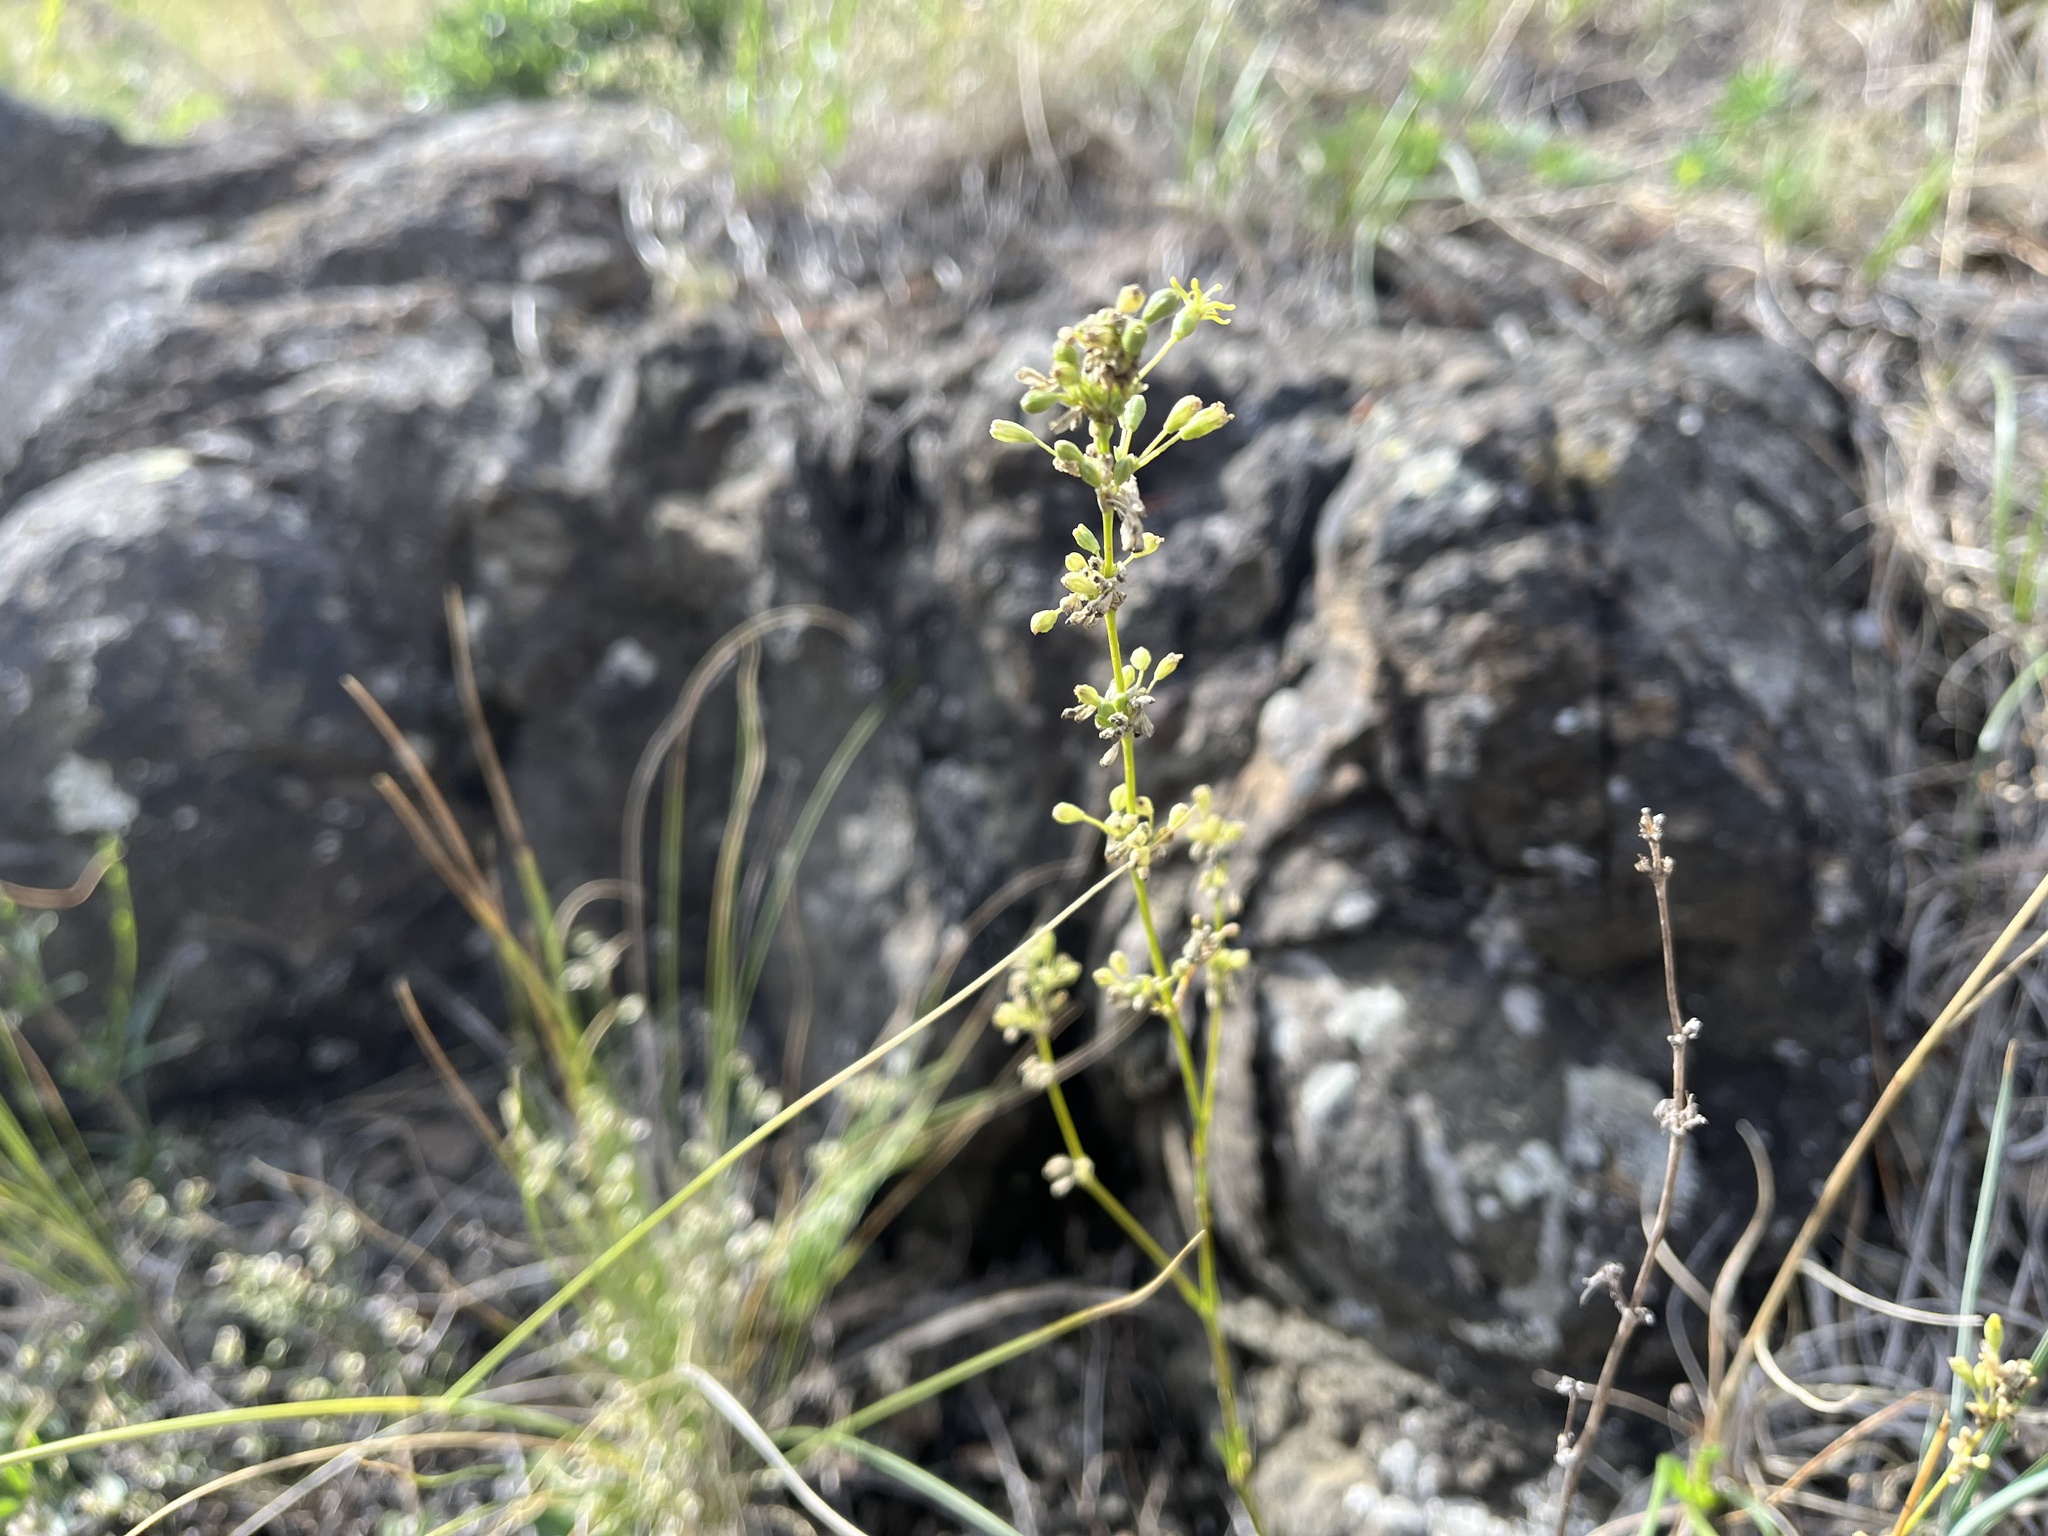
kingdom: Plantae
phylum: Tracheophyta
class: Magnoliopsida
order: Caryophyllales
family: Caryophyllaceae
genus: Silene
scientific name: Silene otites
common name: Spanish catchfly
